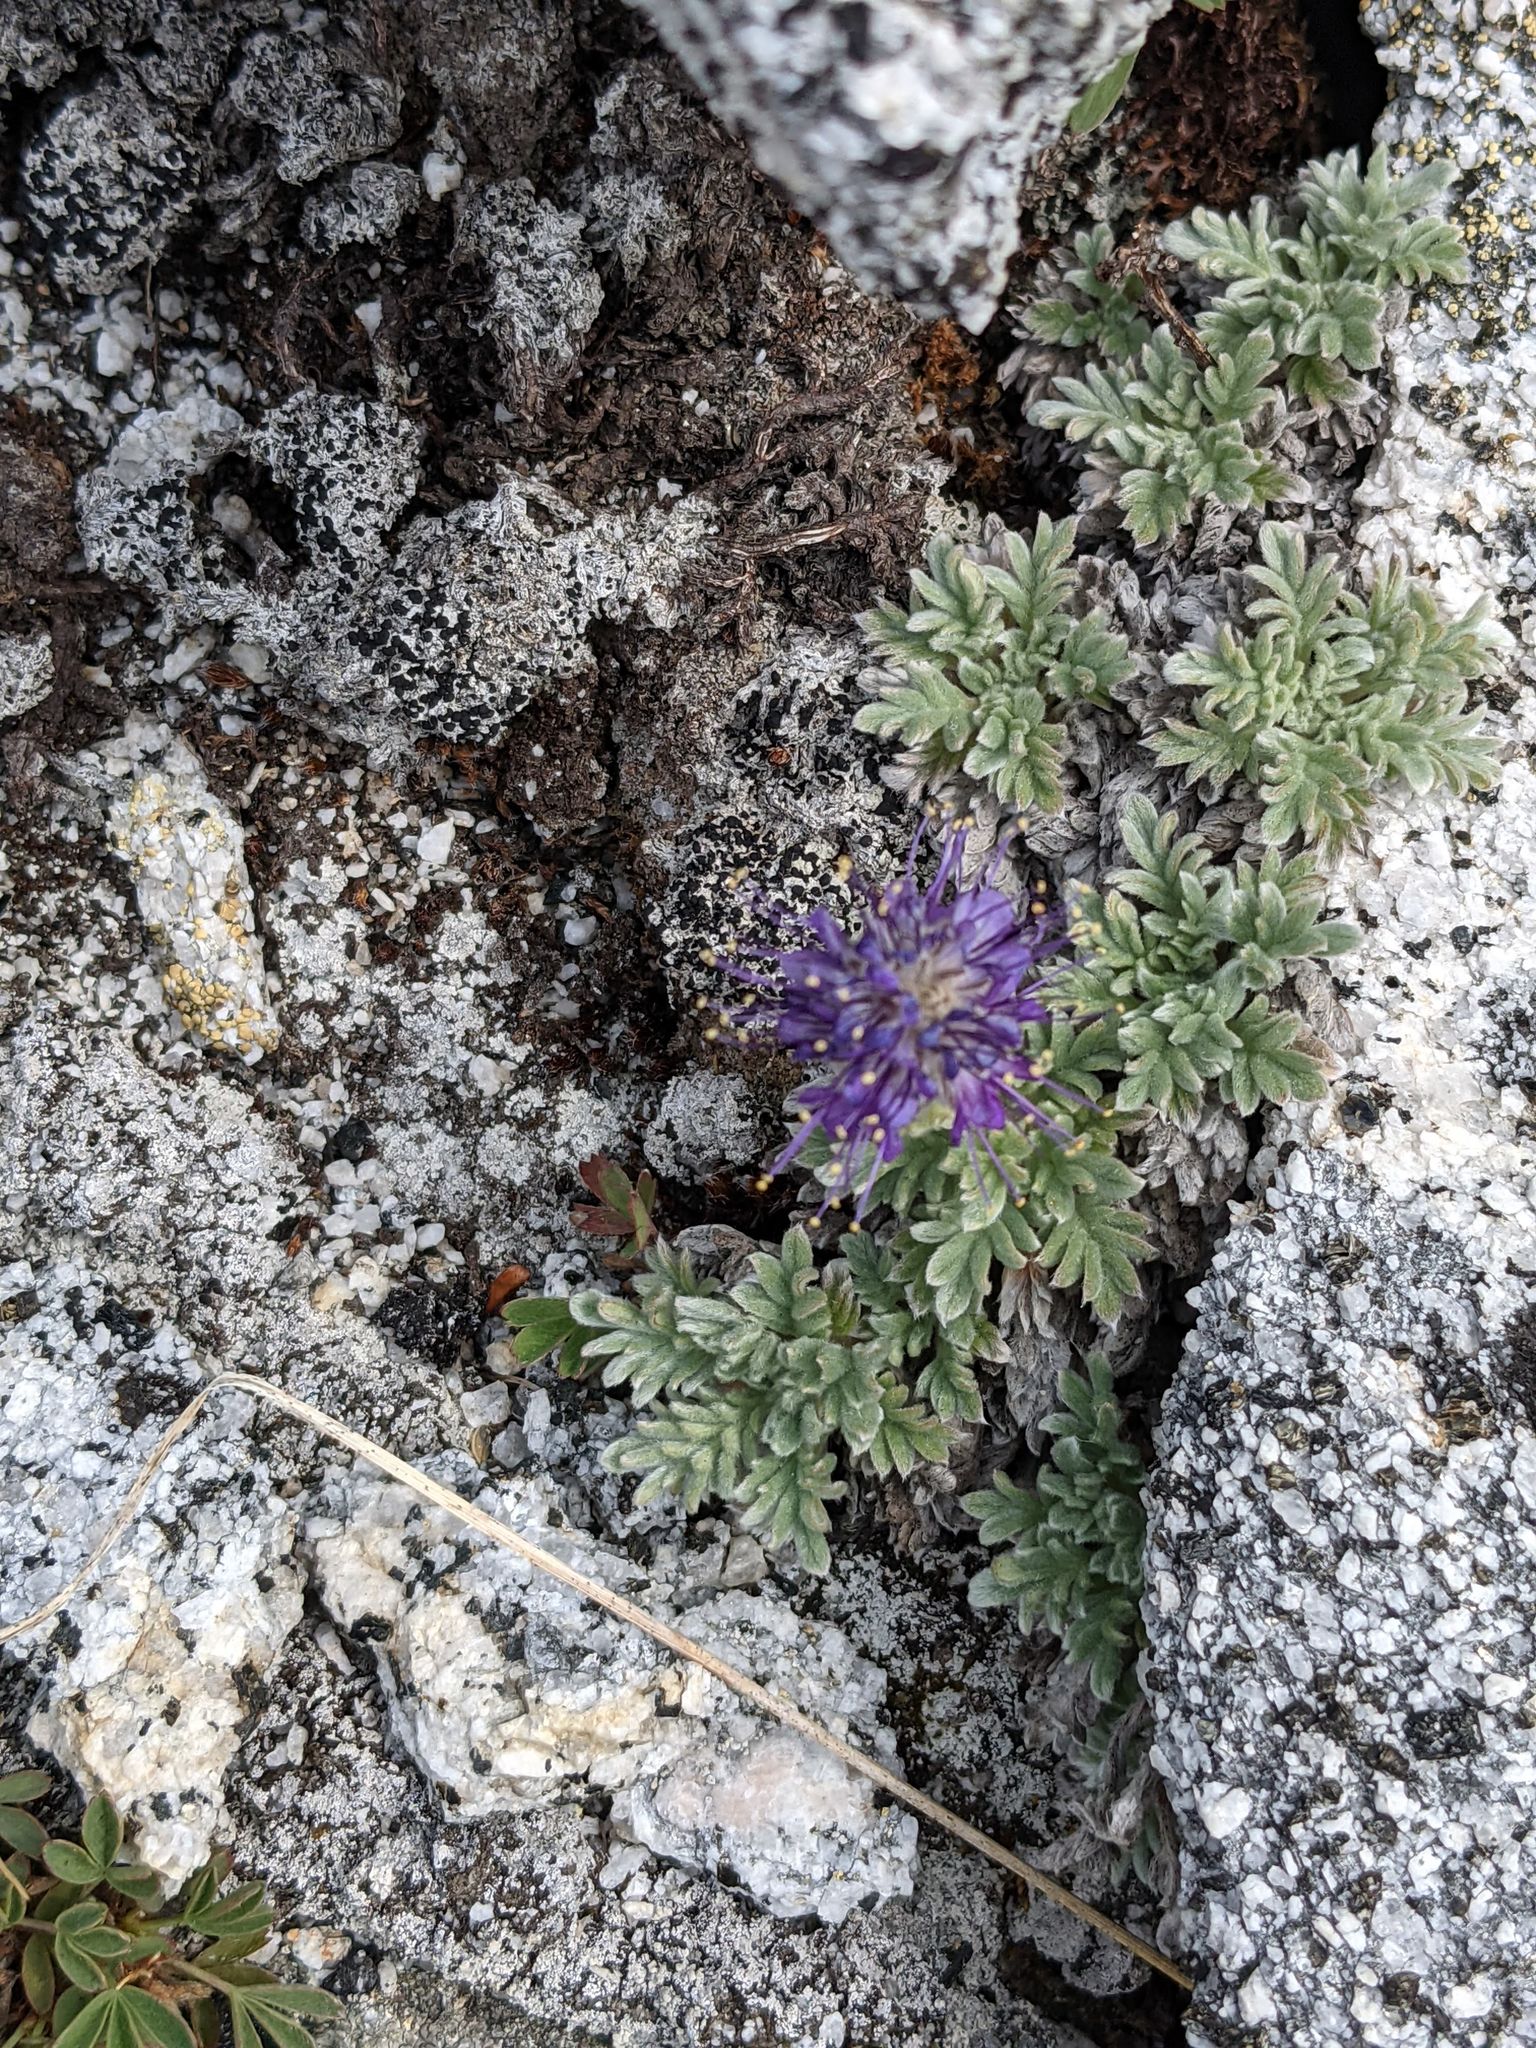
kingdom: Plantae
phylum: Tracheophyta
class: Magnoliopsida
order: Boraginales
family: Hydrophyllaceae
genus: Phacelia
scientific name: Phacelia sericea
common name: Silky phacelia
